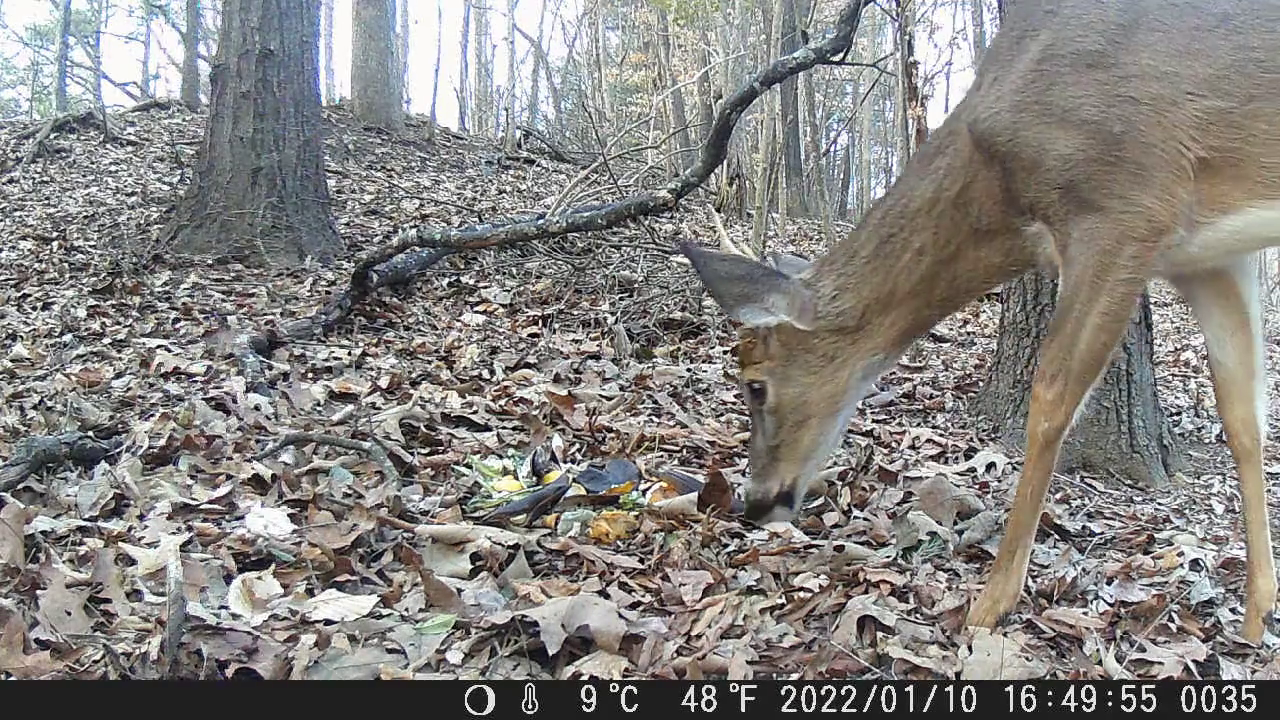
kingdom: Animalia
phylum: Chordata
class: Mammalia
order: Artiodactyla
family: Cervidae
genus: Odocoileus
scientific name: Odocoileus virginianus
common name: White-tailed deer
